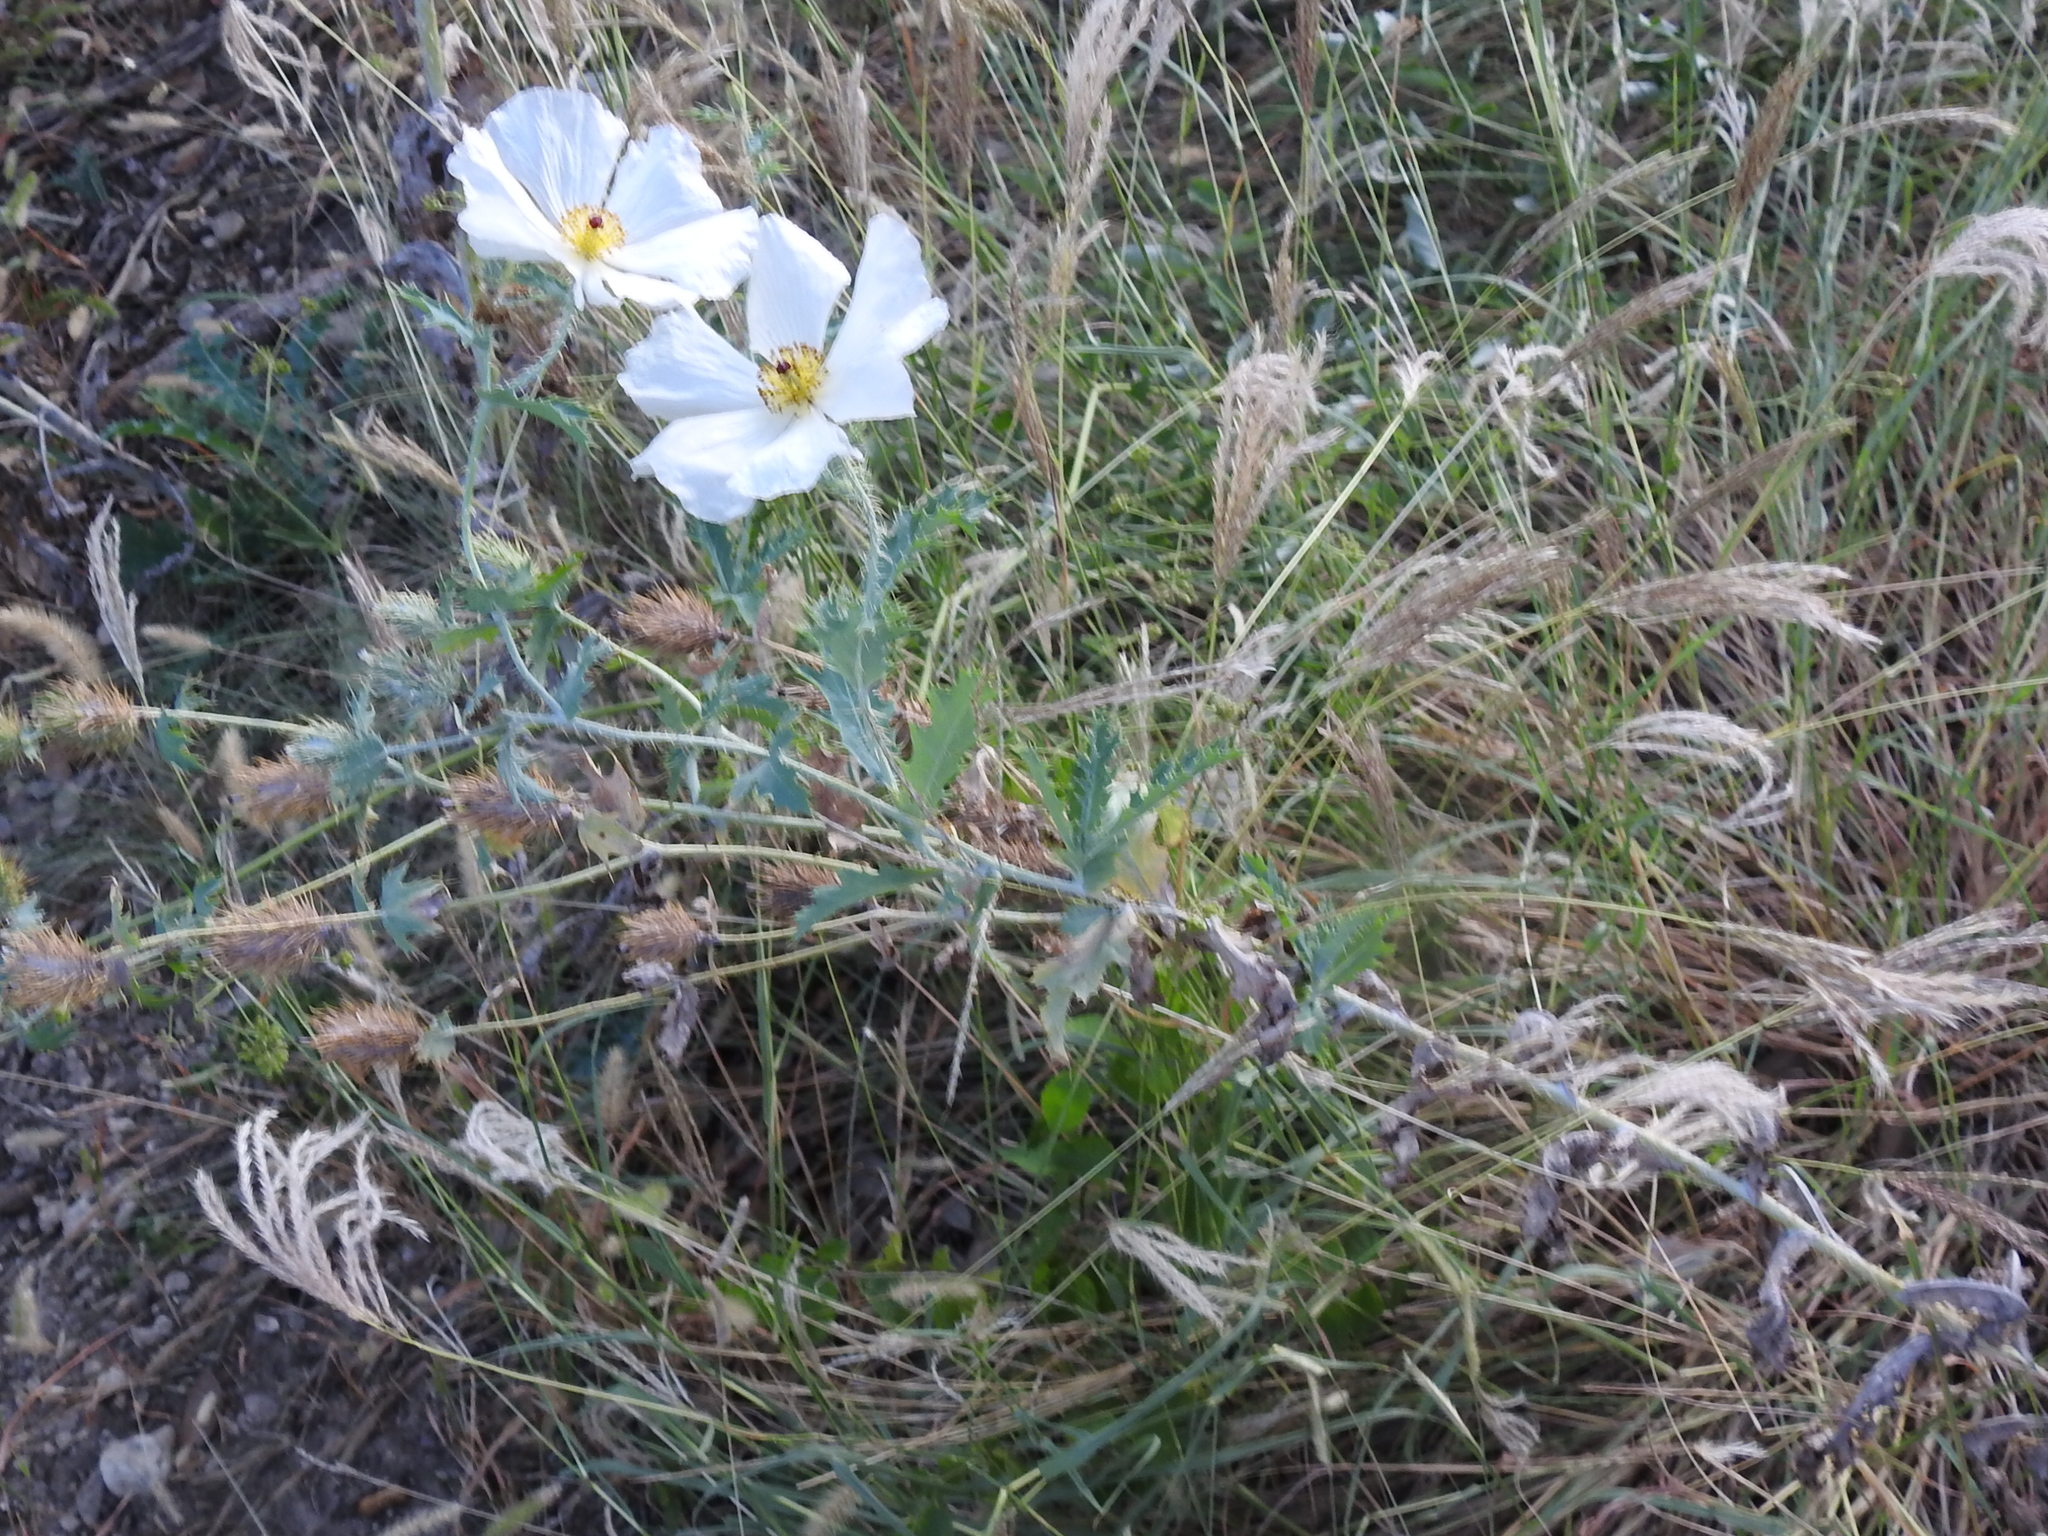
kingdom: Plantae
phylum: Tracheophyta
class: Magnoliopsida
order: Ranunculales
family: Papaveraceae
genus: Argemone
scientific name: Argemone albiflora
